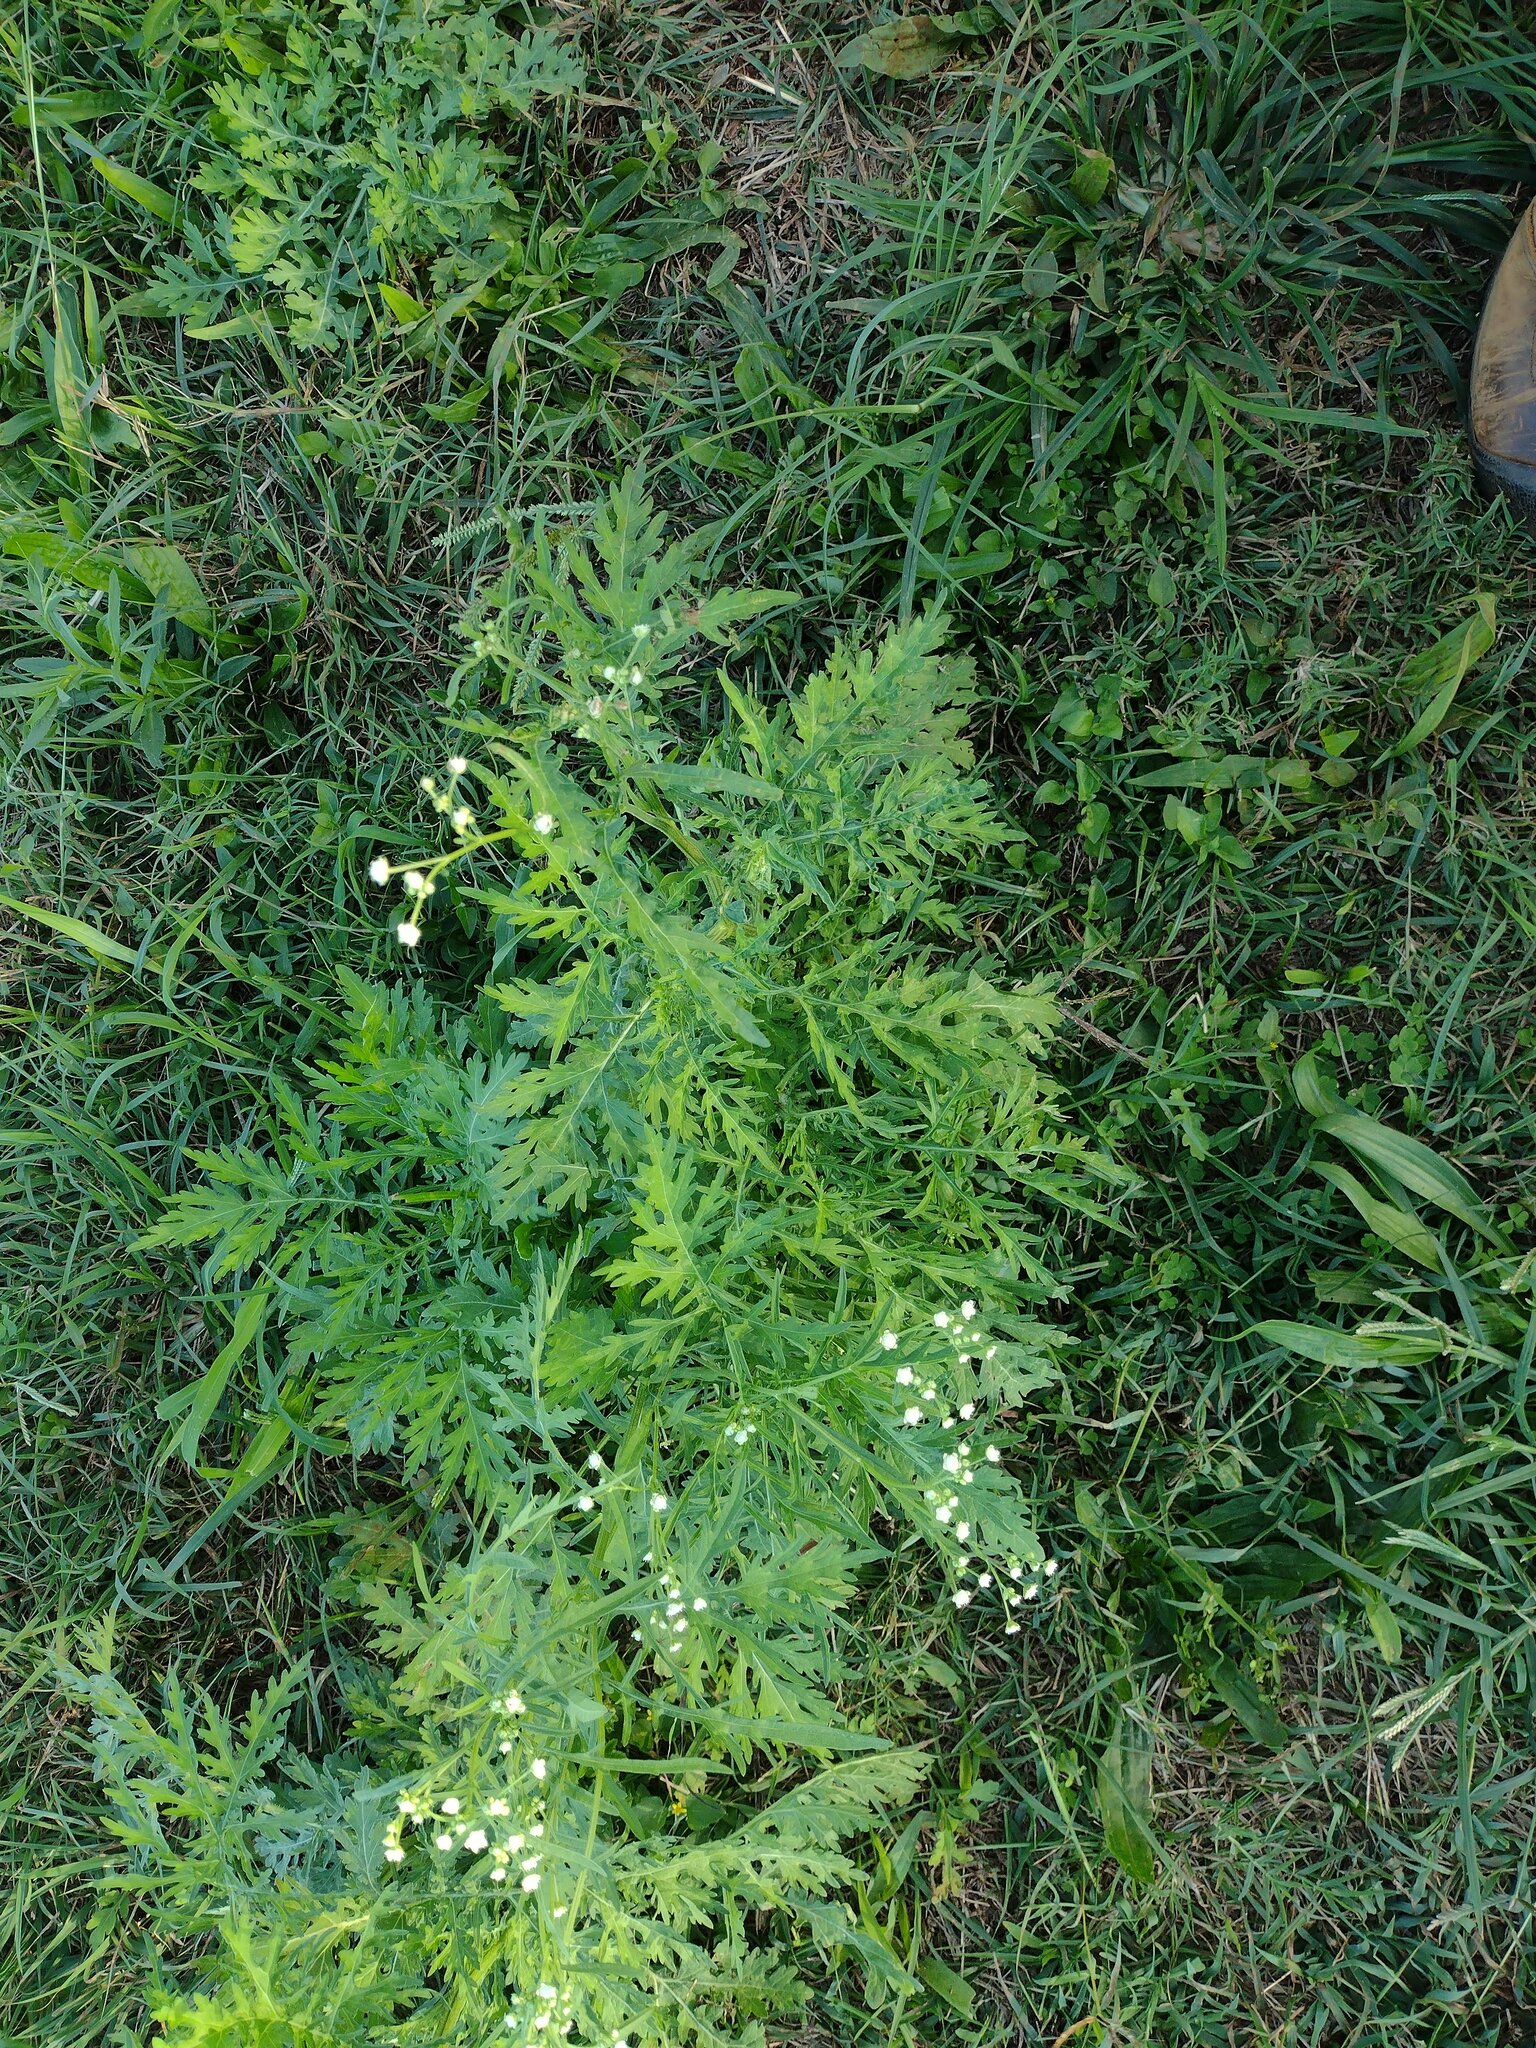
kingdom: Plantae
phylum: Tracheophyta
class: Magnoliopsida
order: Asterales
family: Asteraceae
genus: Parthenium
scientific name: Parthenium hysterophorus
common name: Santa maria feverfew
